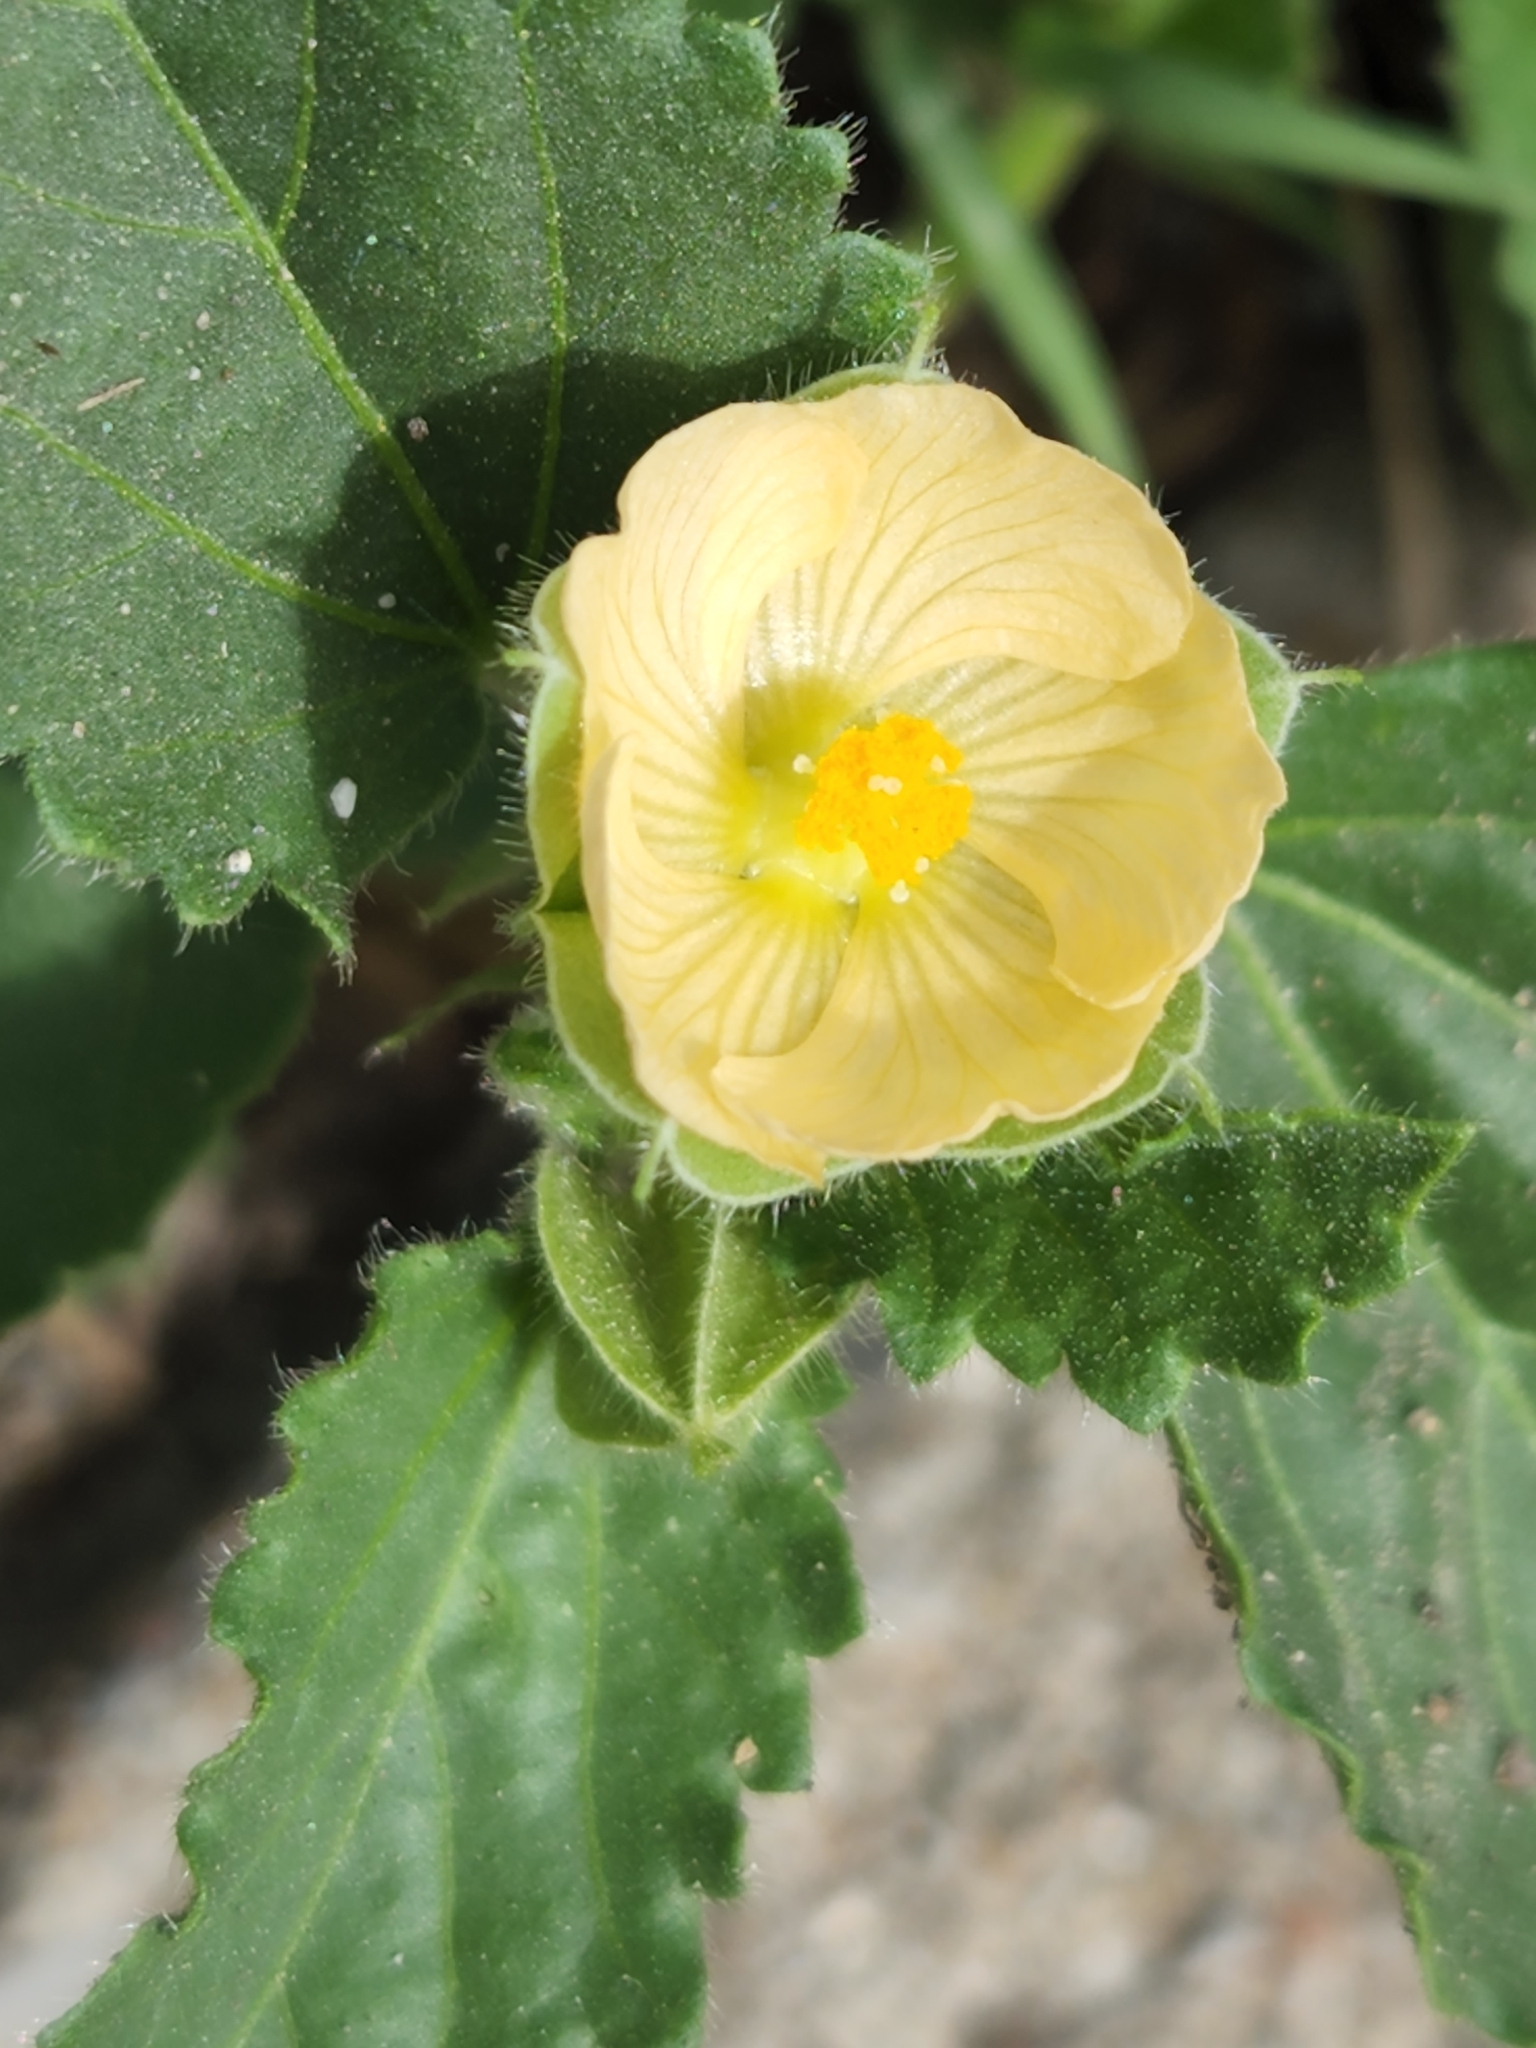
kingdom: Plantae
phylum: Tracheophyta
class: Magnoliopsida
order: Malvales
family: Malvaceae
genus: Rhynchosida
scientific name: Rhynchosida physocalyx
